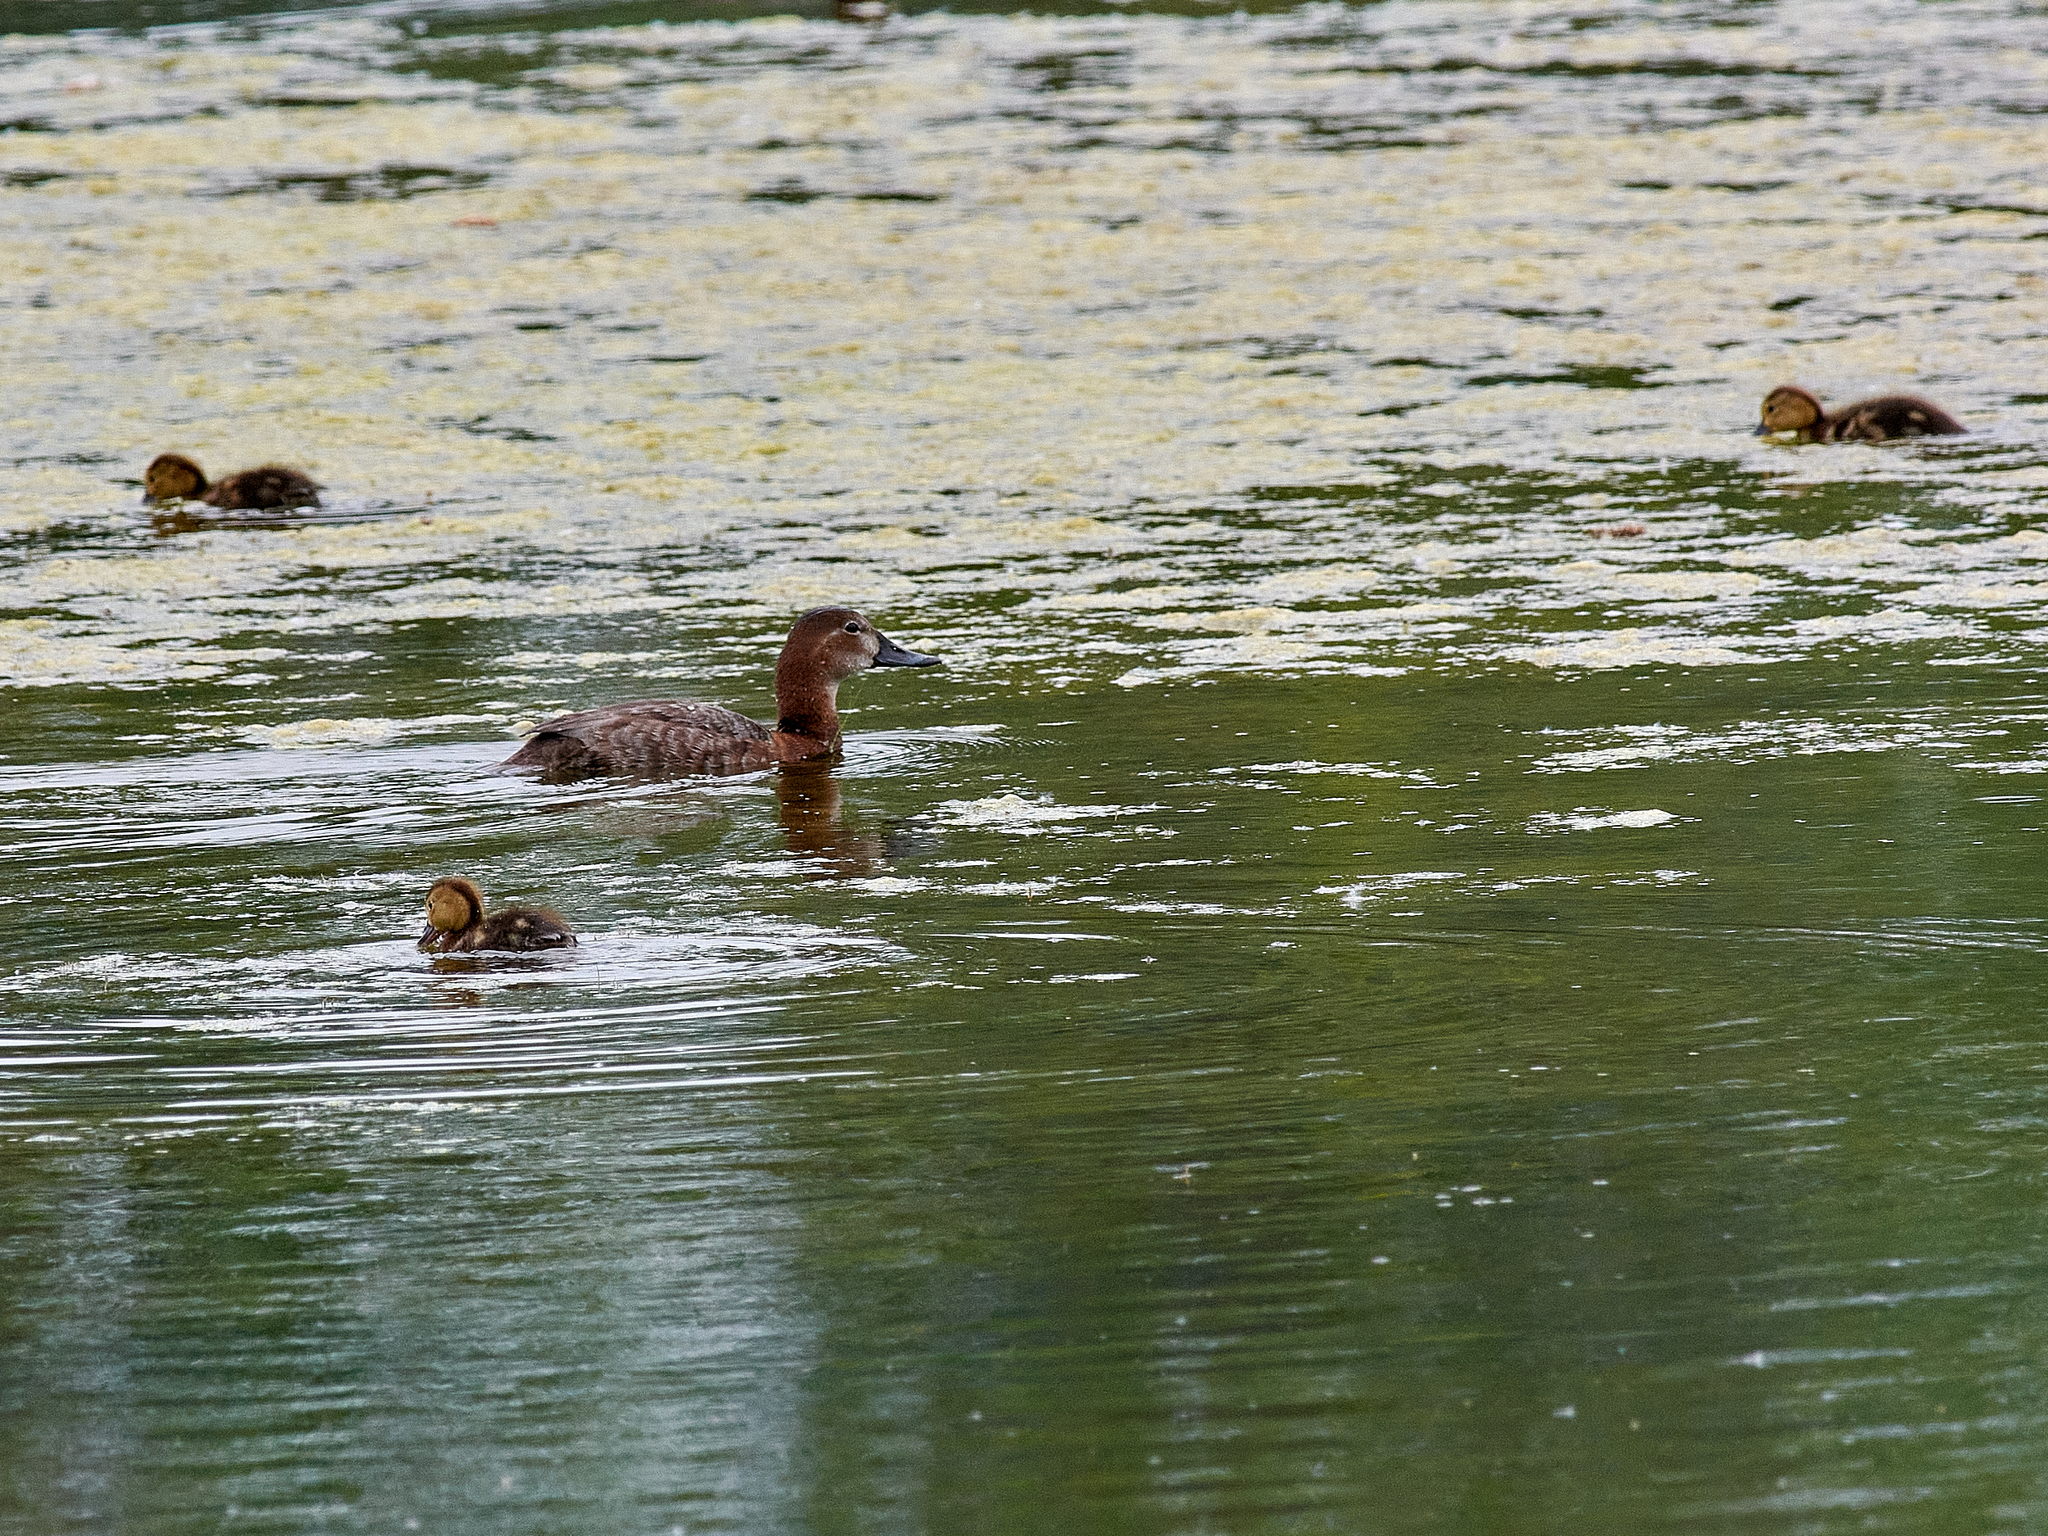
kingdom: Animalia
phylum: Chordata
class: Aves
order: Anseriformes
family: Anatidae
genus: Aythya
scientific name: Aythya ferina
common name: Common pochard
